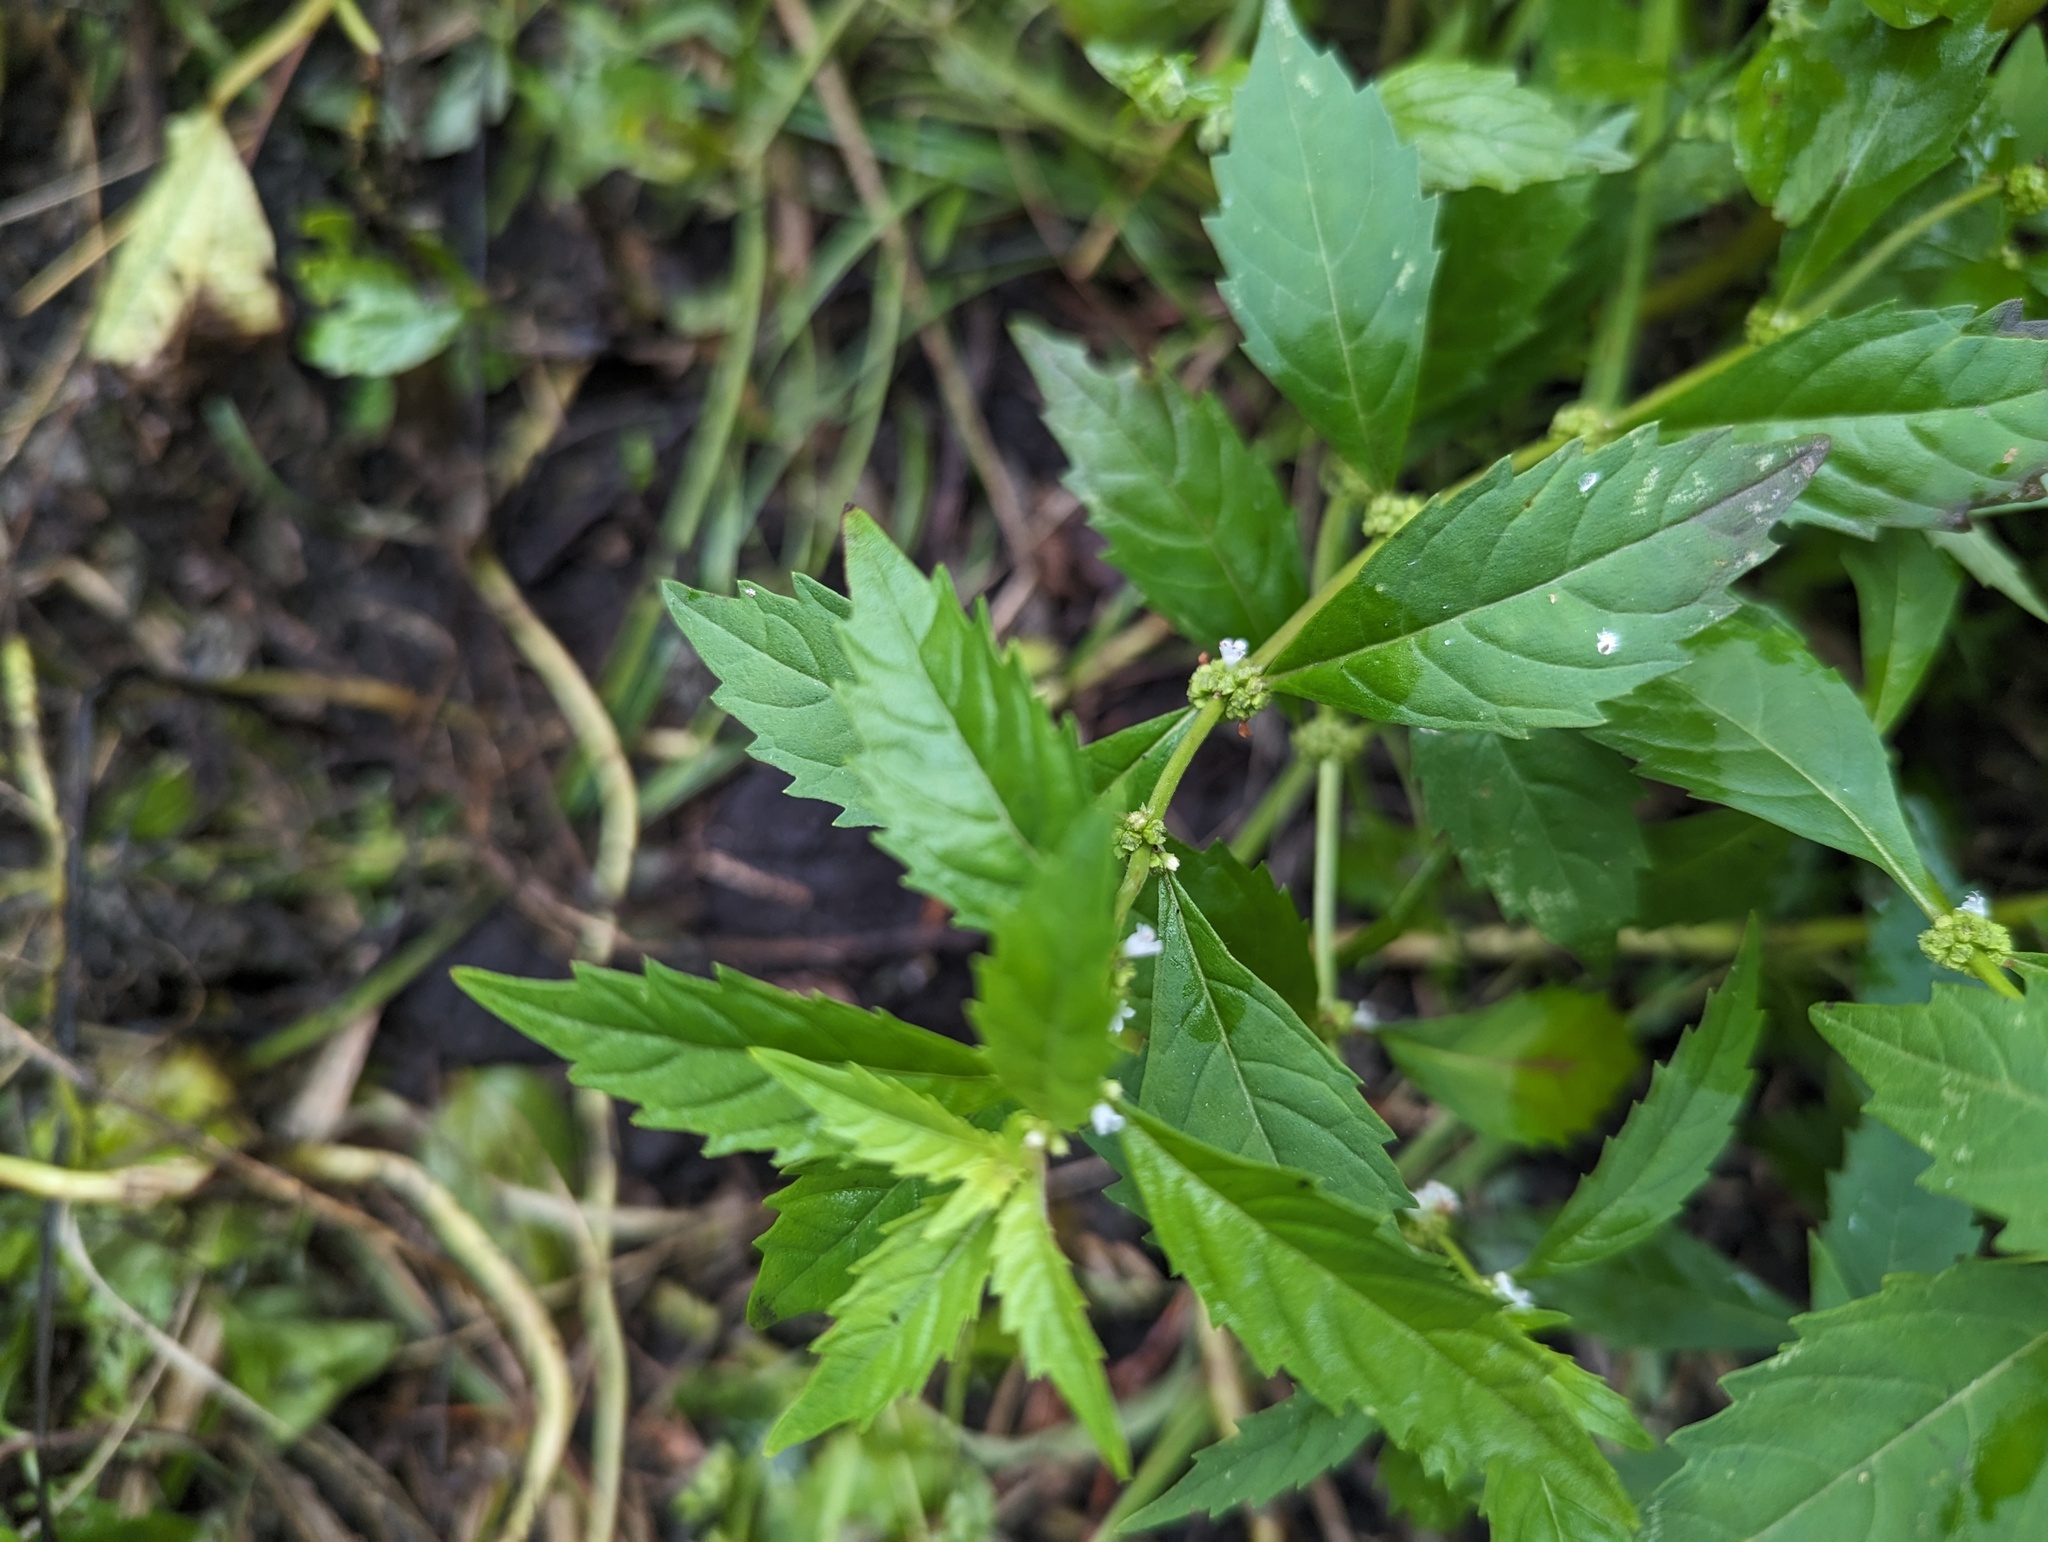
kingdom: Plantae
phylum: Tracheophyta
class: Magnoliopsida
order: Lamiales
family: Lamiaceae
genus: Lycopus
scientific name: Lycopus uniflorus
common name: Northern bugleweed
